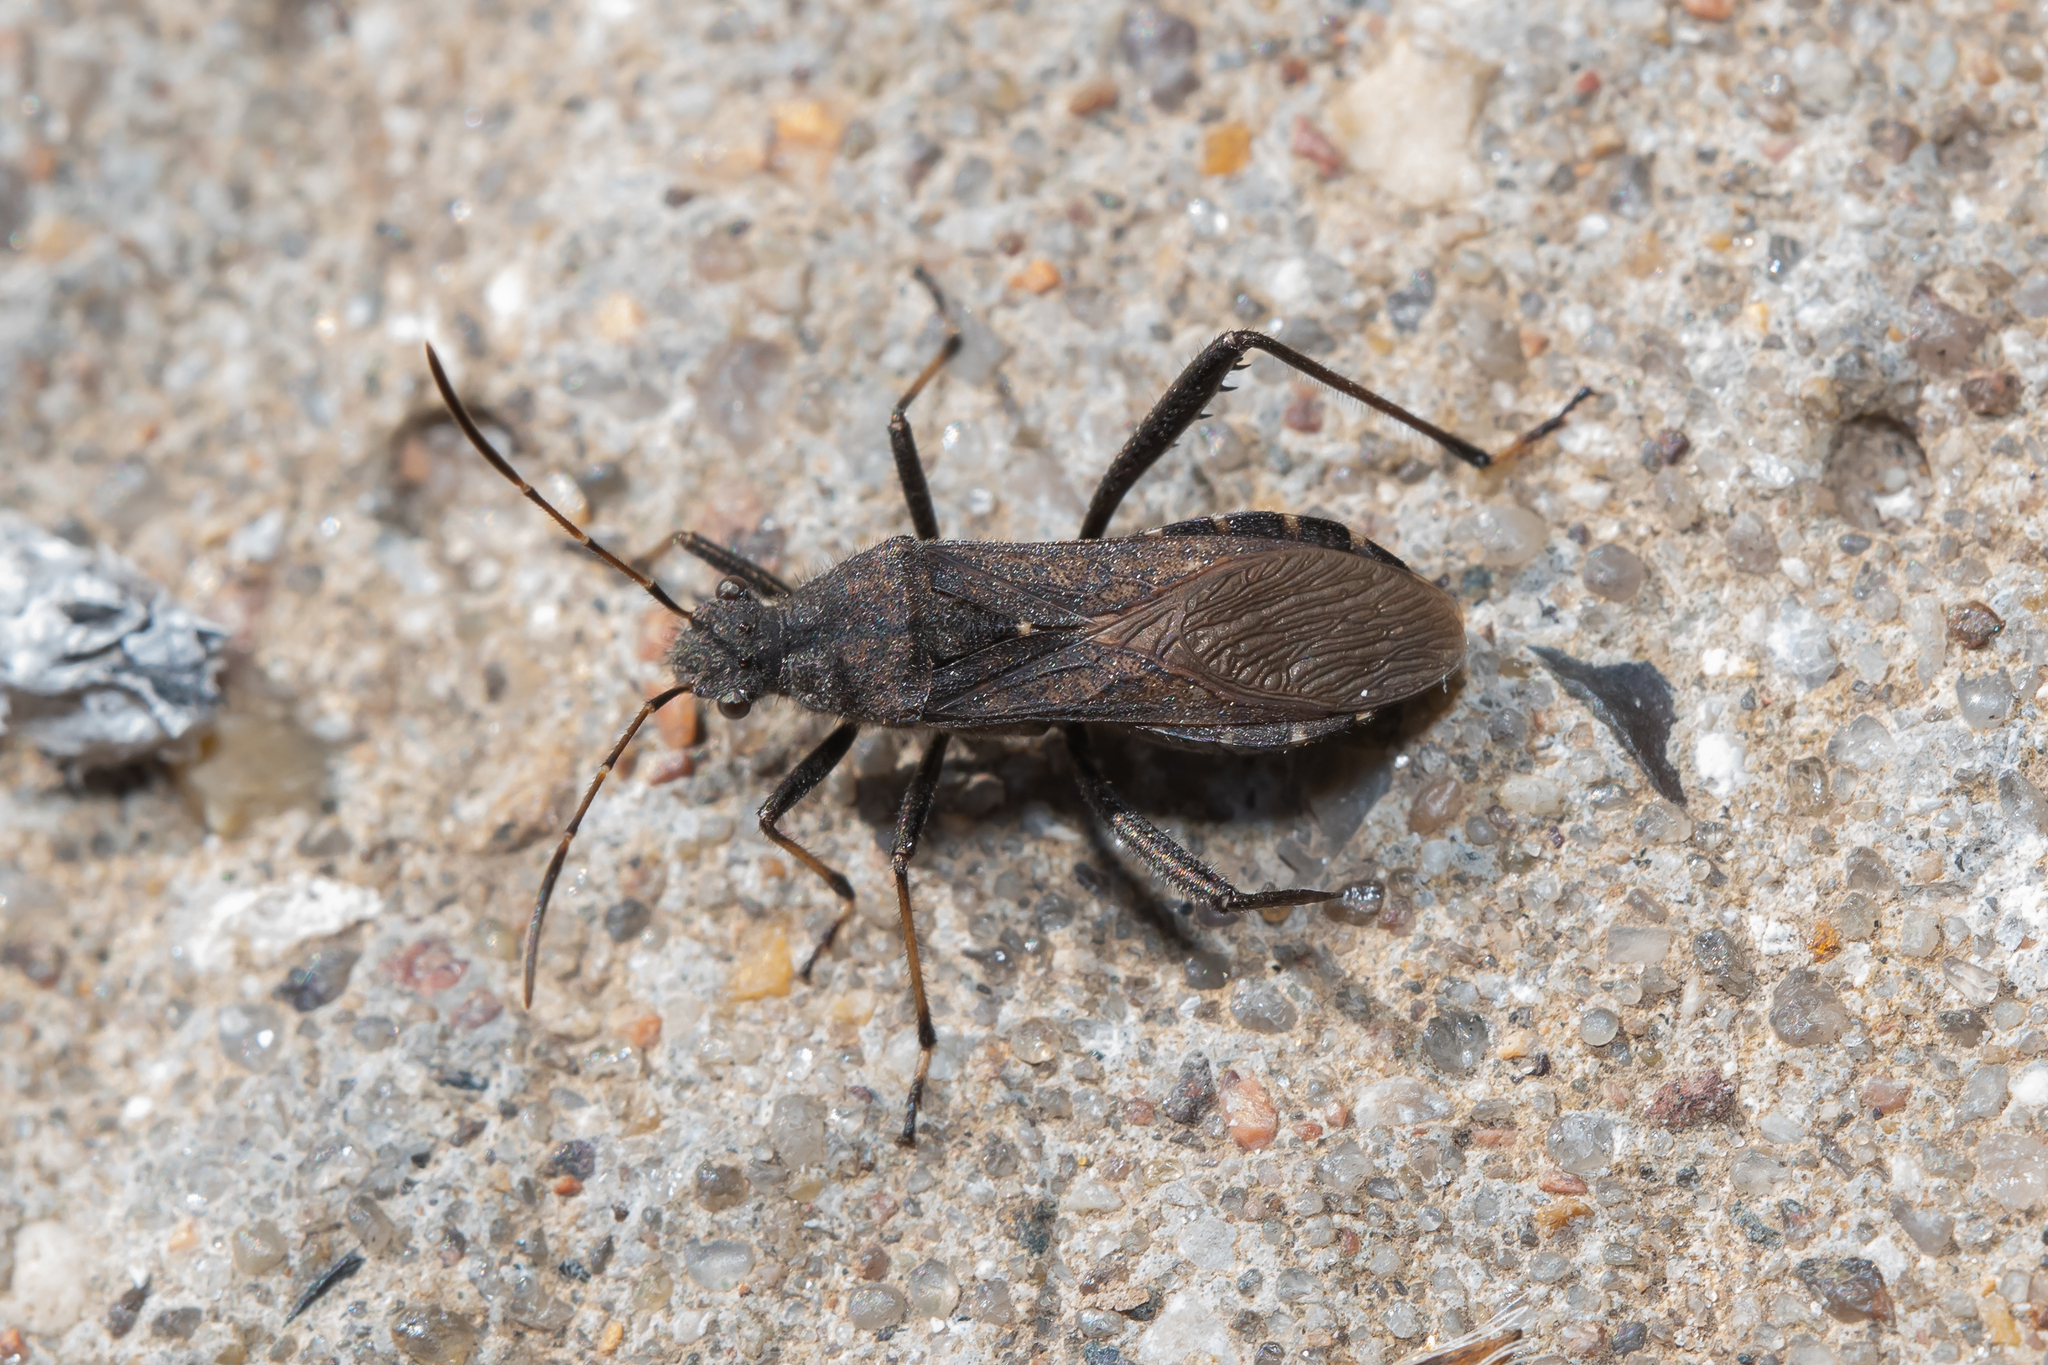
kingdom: Animalia
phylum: Arthropoda
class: Insecta
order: Hemiptera
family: Alydidae
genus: Alydus
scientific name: Alydus calcaratus
